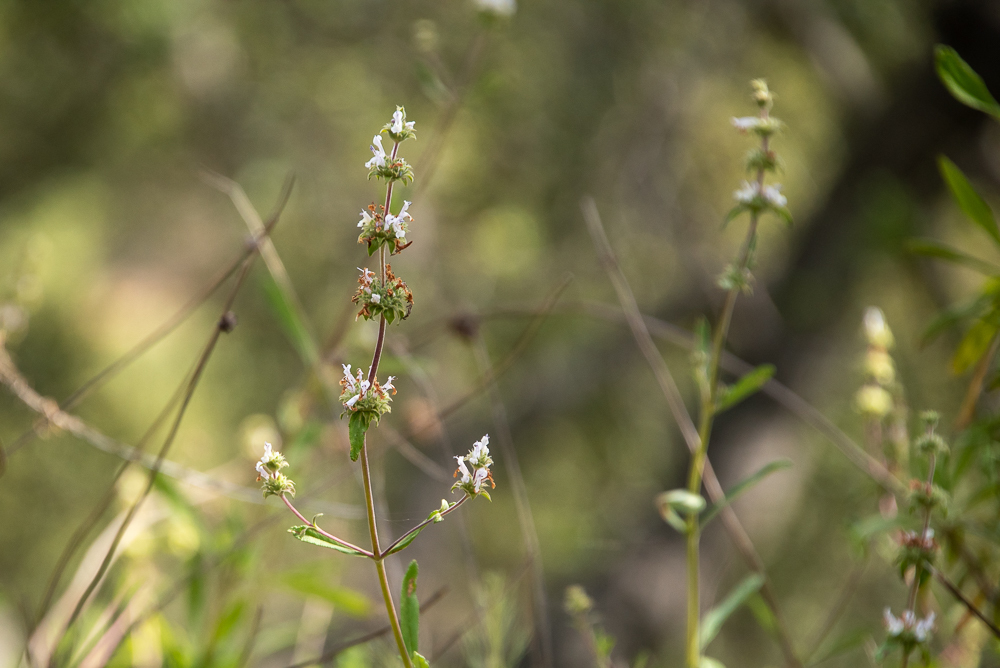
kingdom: Plantae
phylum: Tracheophyta
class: Magnoliopsida
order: Lamiales
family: Lamiaceae
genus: Salvia
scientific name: Salvia mellifera
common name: Black sage
